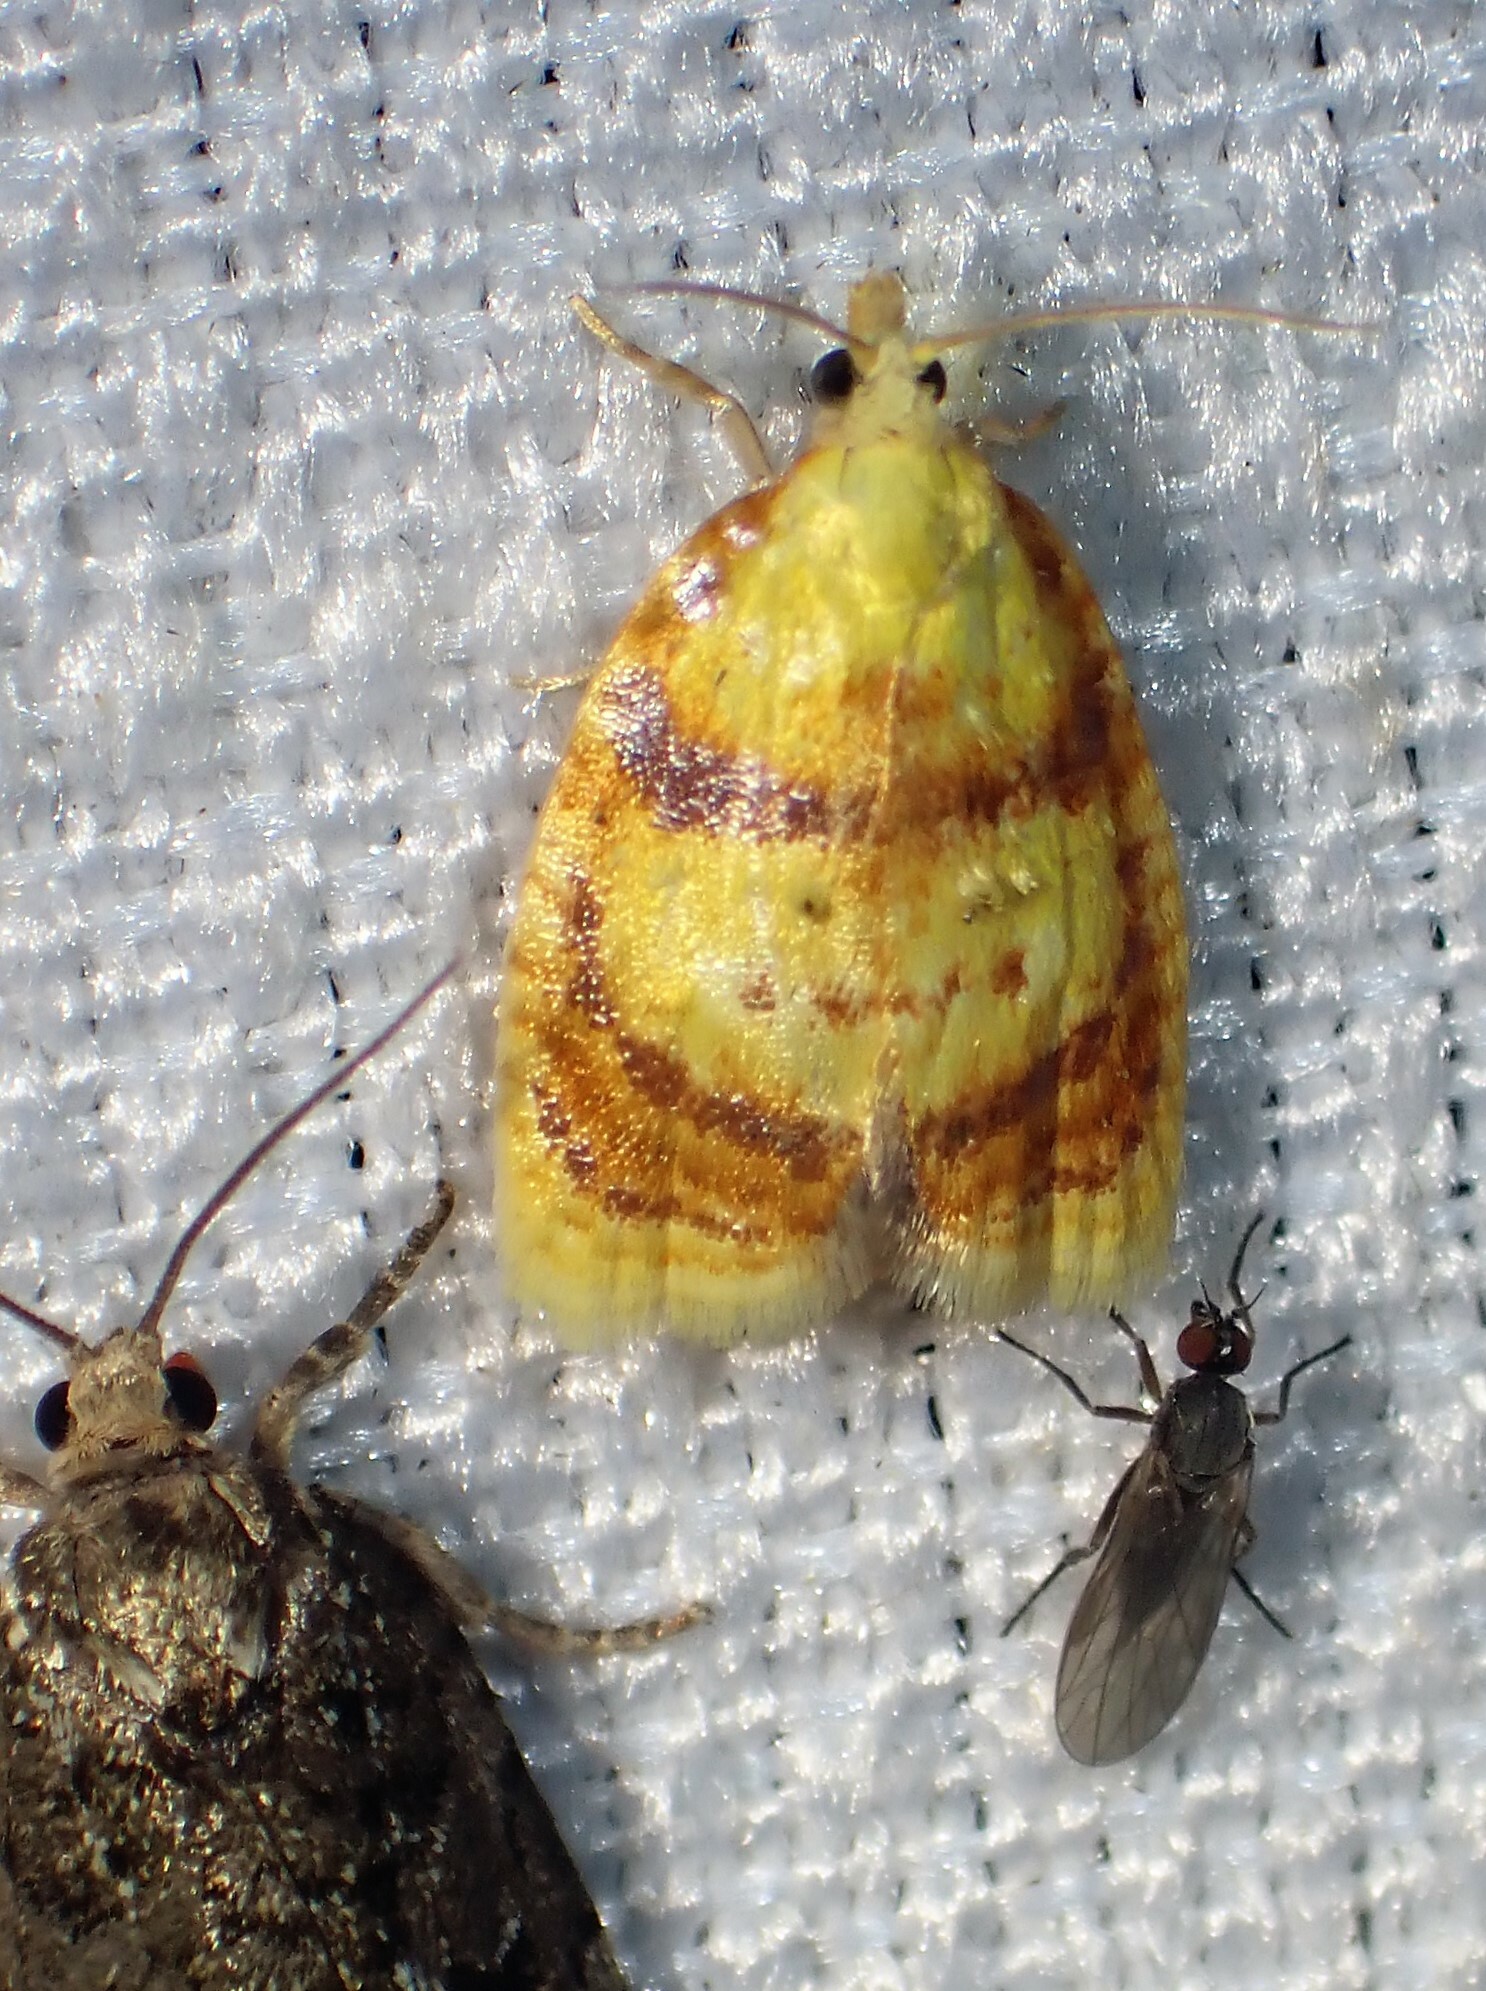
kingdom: Animalia
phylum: Arthropoda
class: Insecta
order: Lepidoptera
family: Tortricidae
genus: Acleris
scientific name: Acleris curvalana
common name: Blueberry leaftier moth
